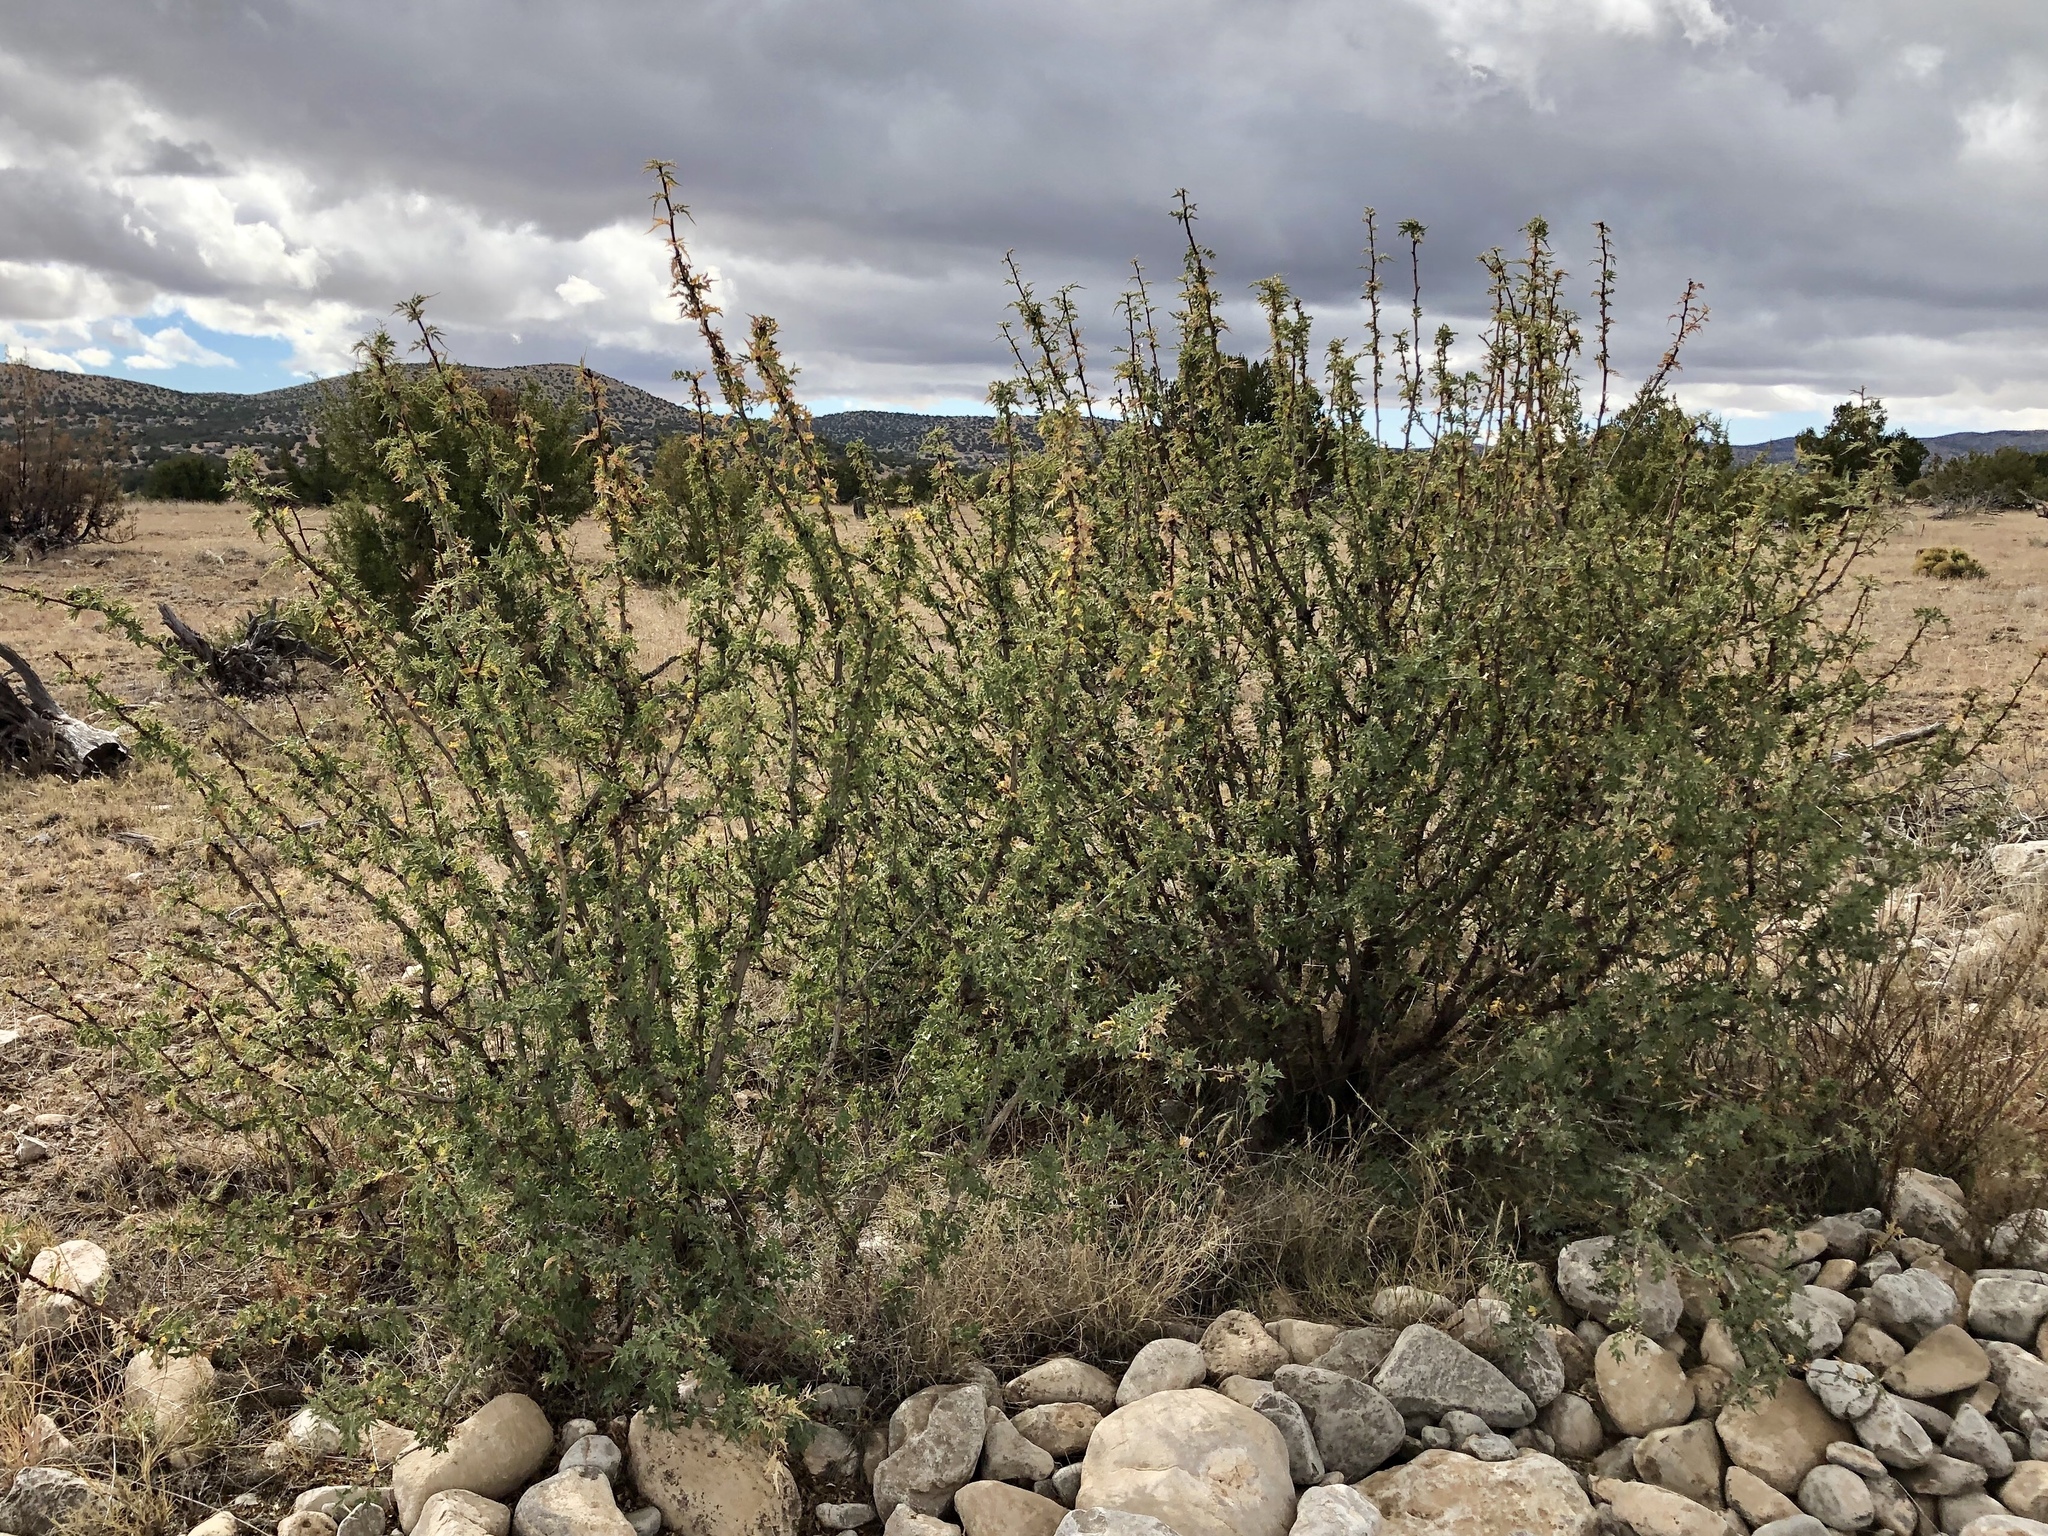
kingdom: Plantae
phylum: Tracheophyta
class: Magnoliopsida
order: Ranunculales
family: Berberidaceae
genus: Alloberberis
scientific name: Alloberberis haematocarpa
